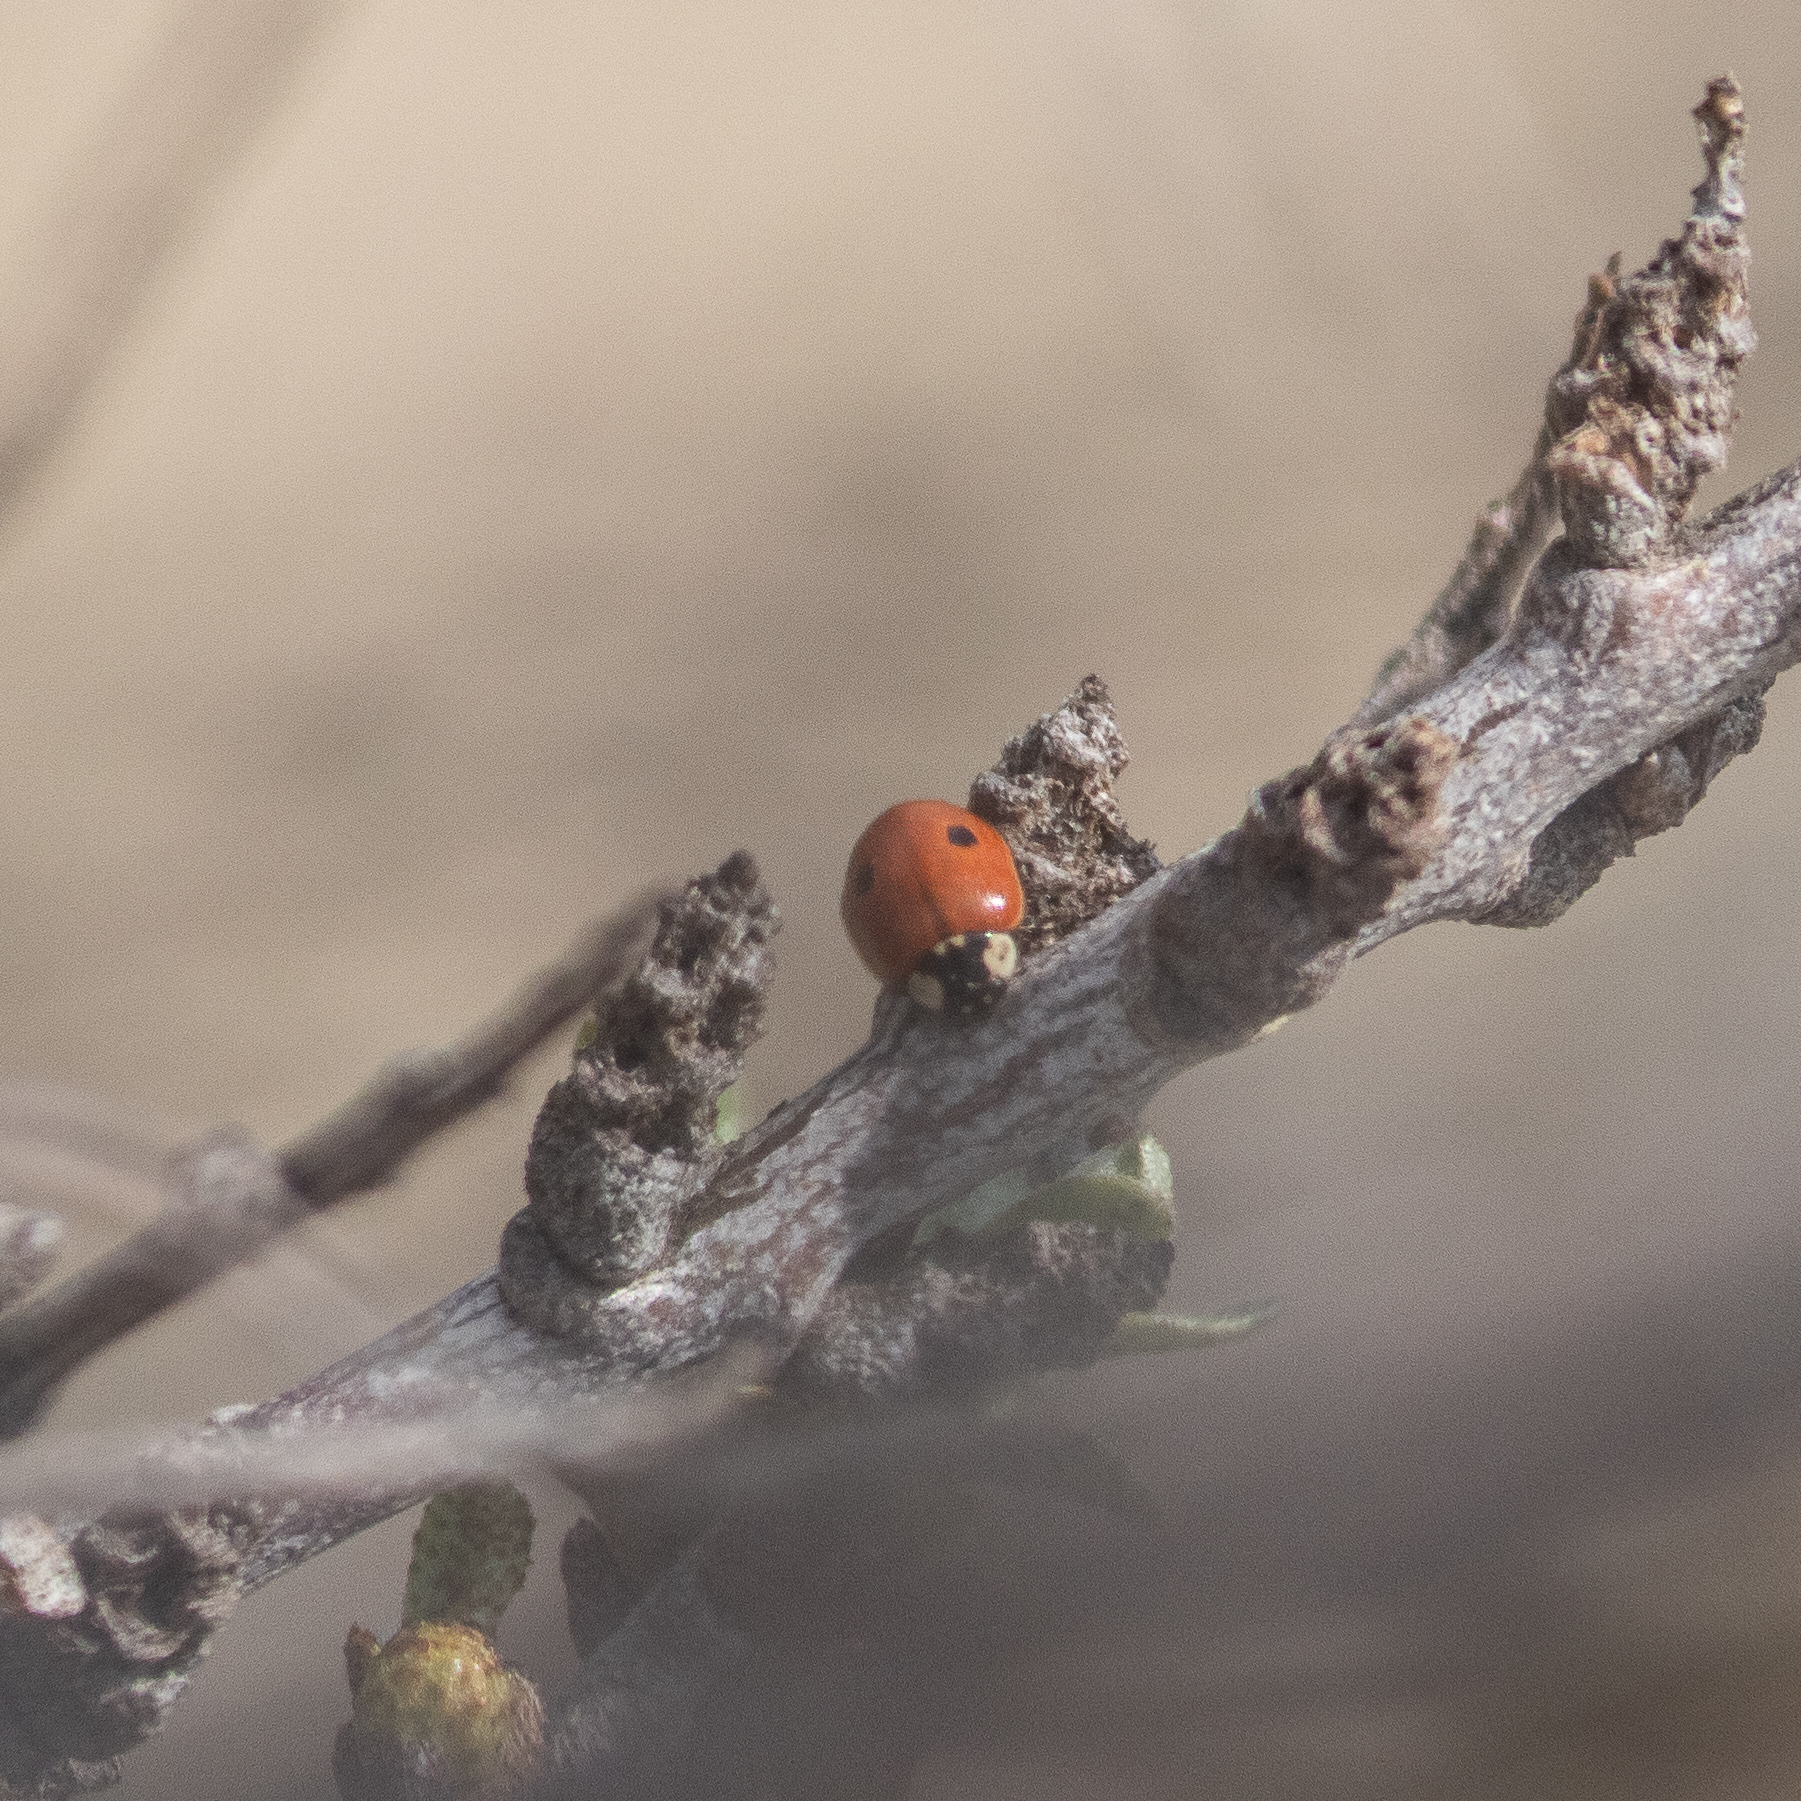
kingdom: Animalia
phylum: Arthropoda
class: Insecta
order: Coleoptera
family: Coccinellidae
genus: Adalia
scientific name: Adalia bipunctata
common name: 2-spot ladybird
